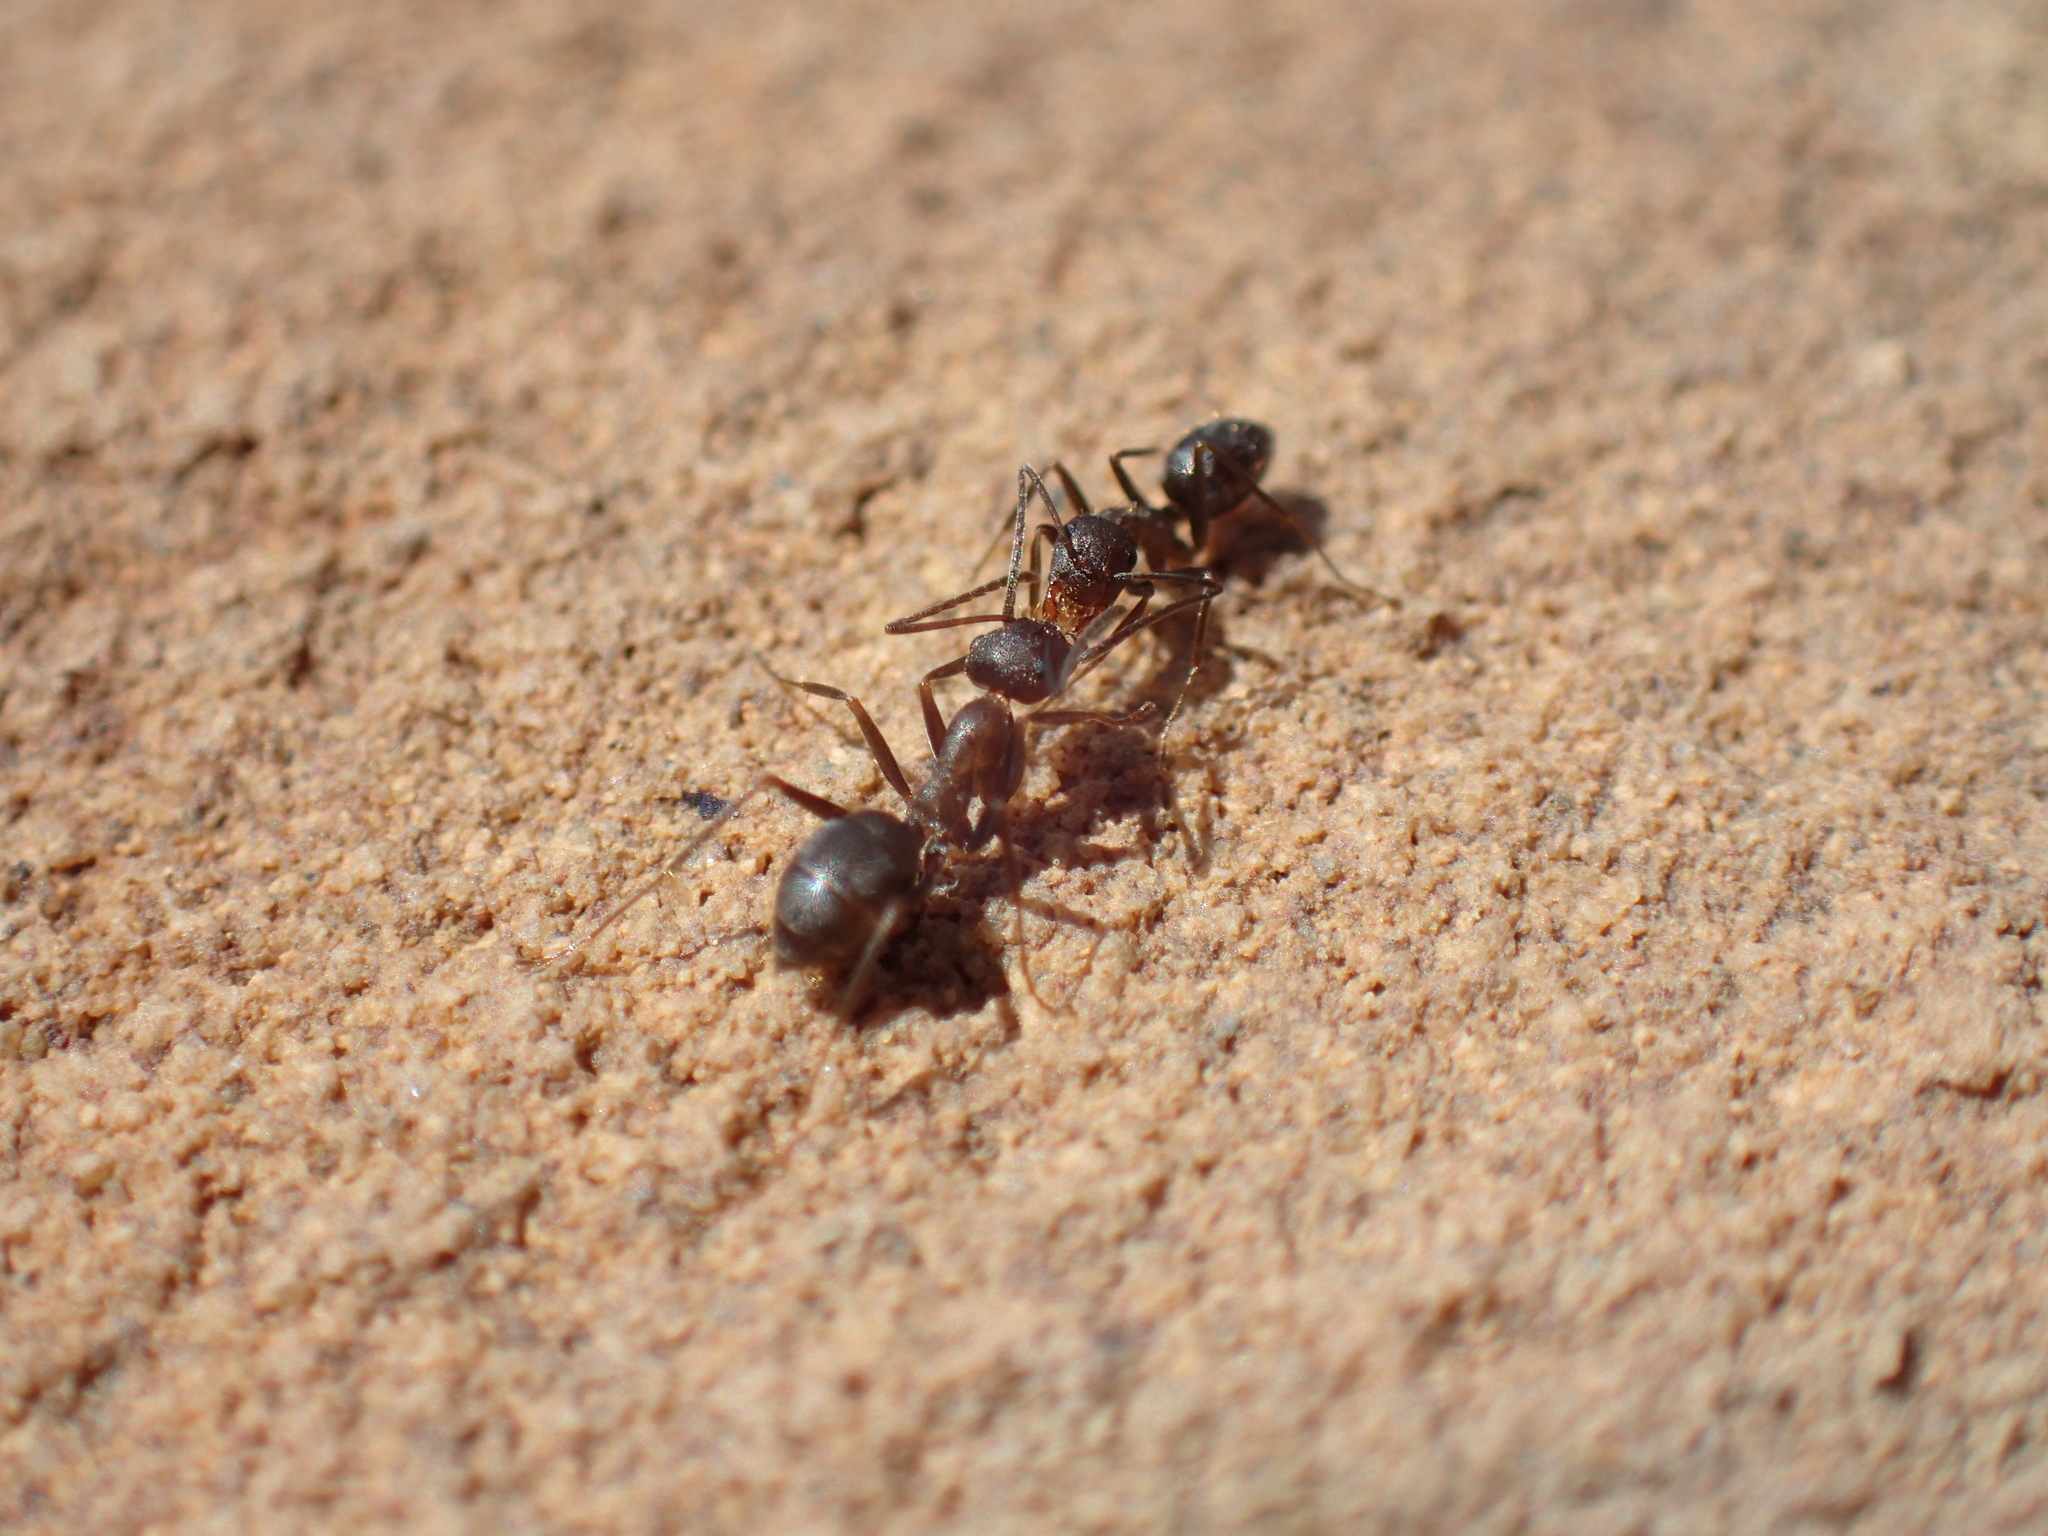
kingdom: Animalia
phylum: Arthropoda
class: Insecta
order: Hymenoptera
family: Formicidae
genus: Anoplolepis
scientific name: Anoplolepis steingroeveri
